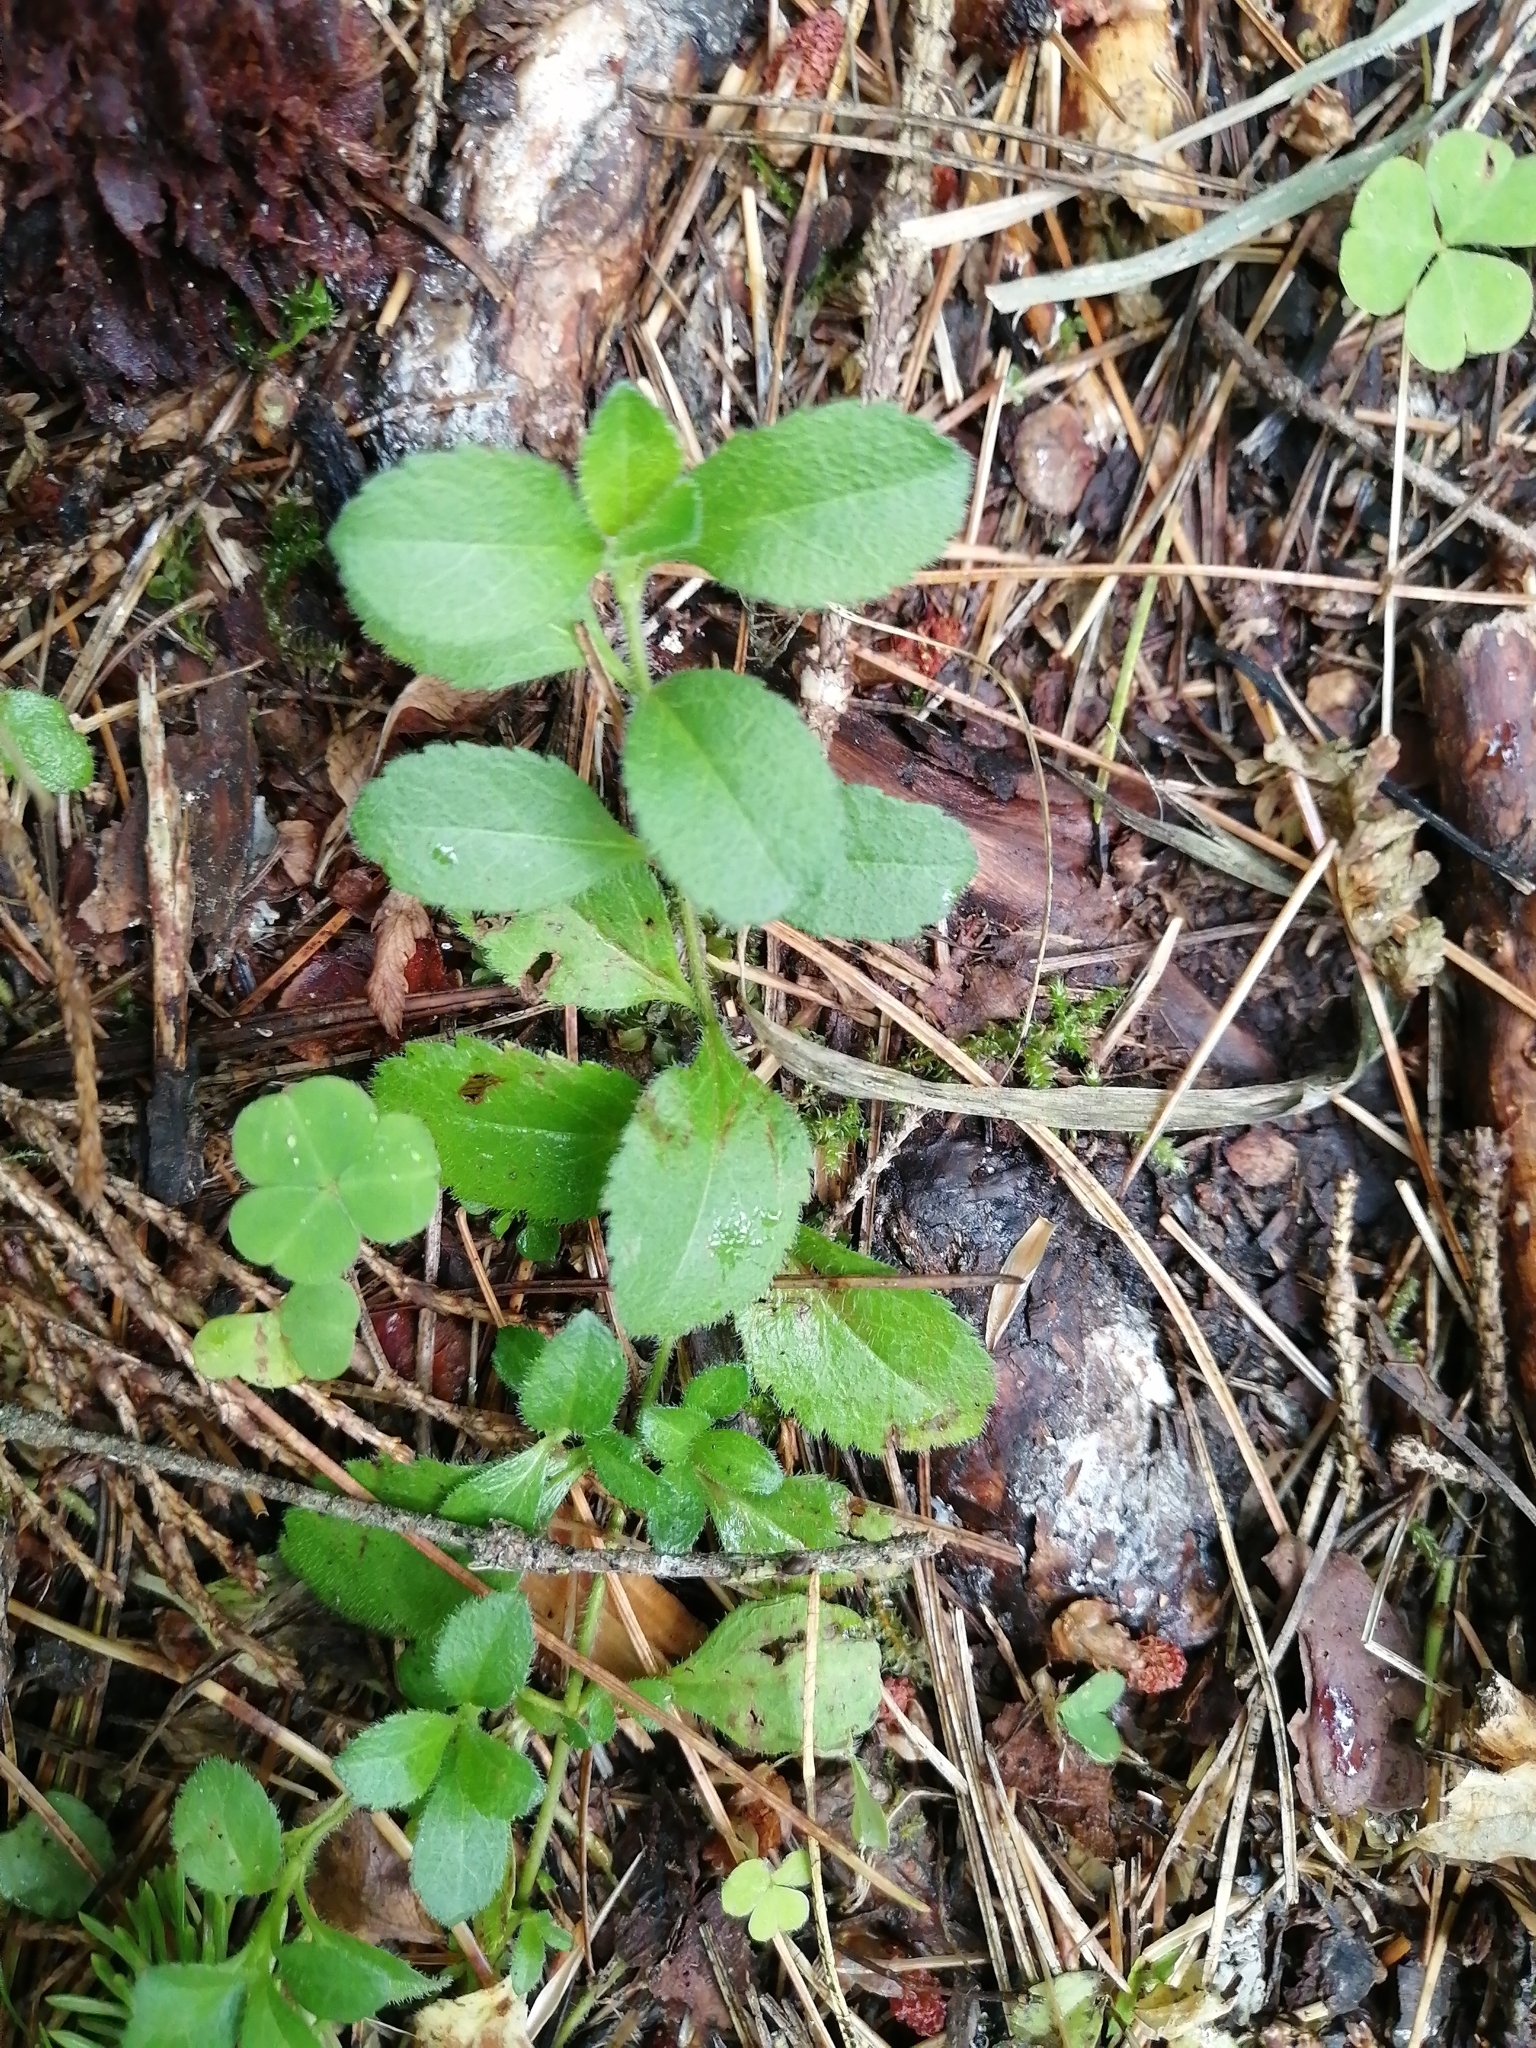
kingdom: Plantae
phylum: Tracheophyta
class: Magnoliopsida
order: Lamiales
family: Plantaginaceae
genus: Veronica
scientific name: Veronica officinalis
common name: Common speedwell
